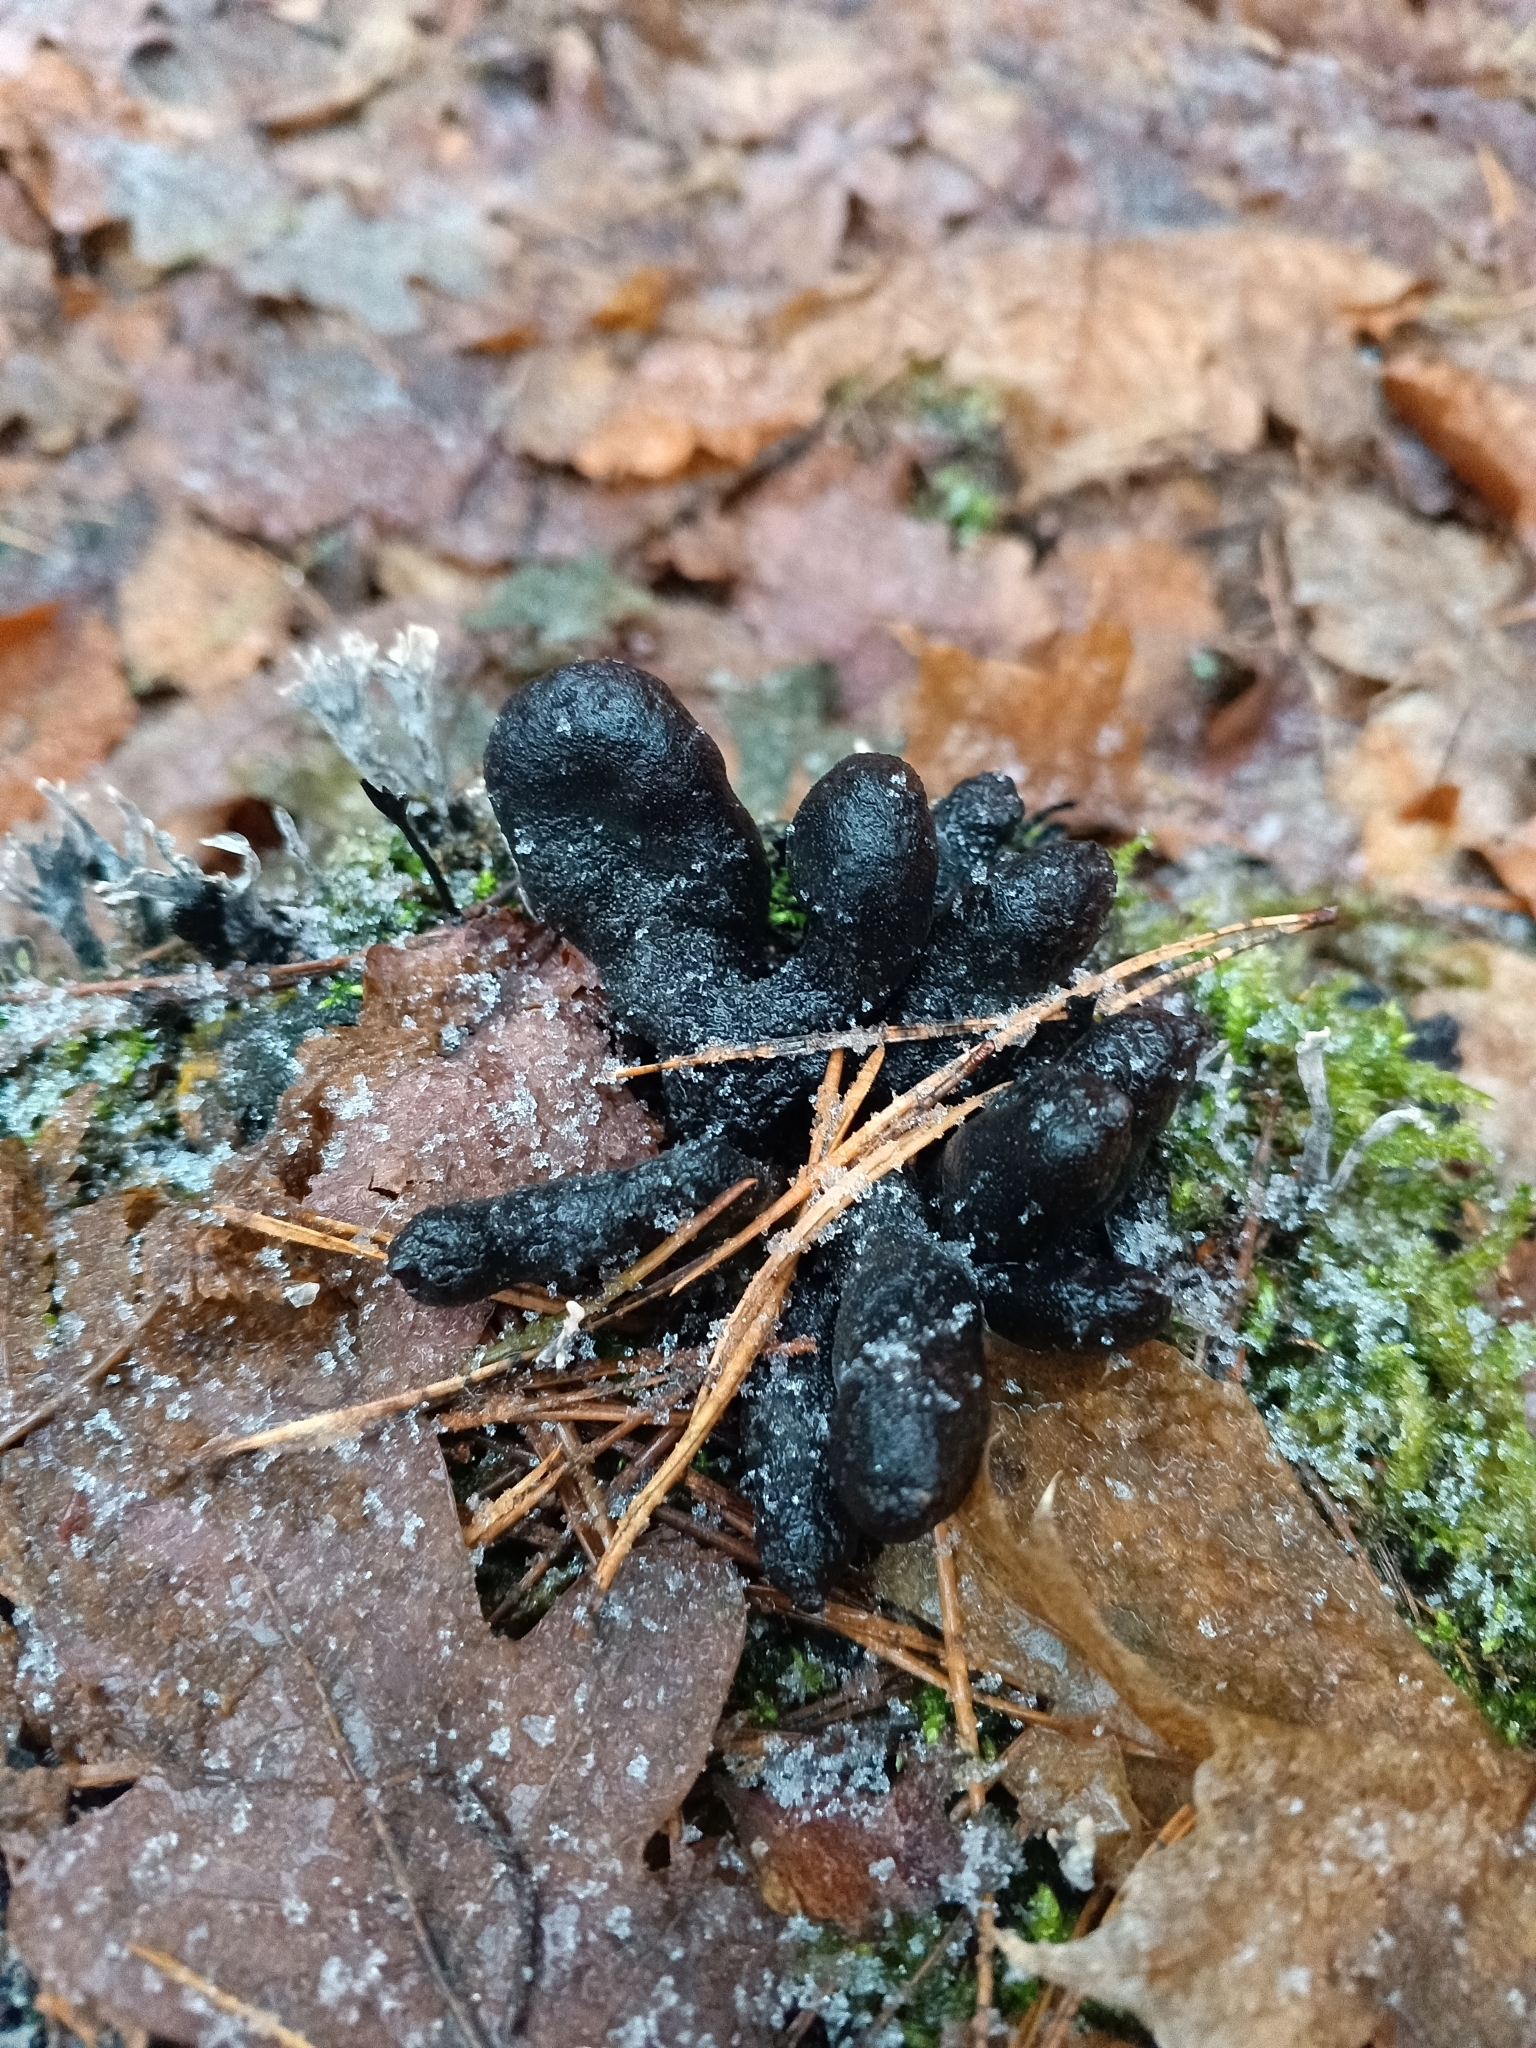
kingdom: Fungi
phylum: Ascomycota
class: Sordariomycetes
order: Xylariales
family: Xylariaceae
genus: Xylaria
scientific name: Xylaria polymorpha
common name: Dead man's fingers
